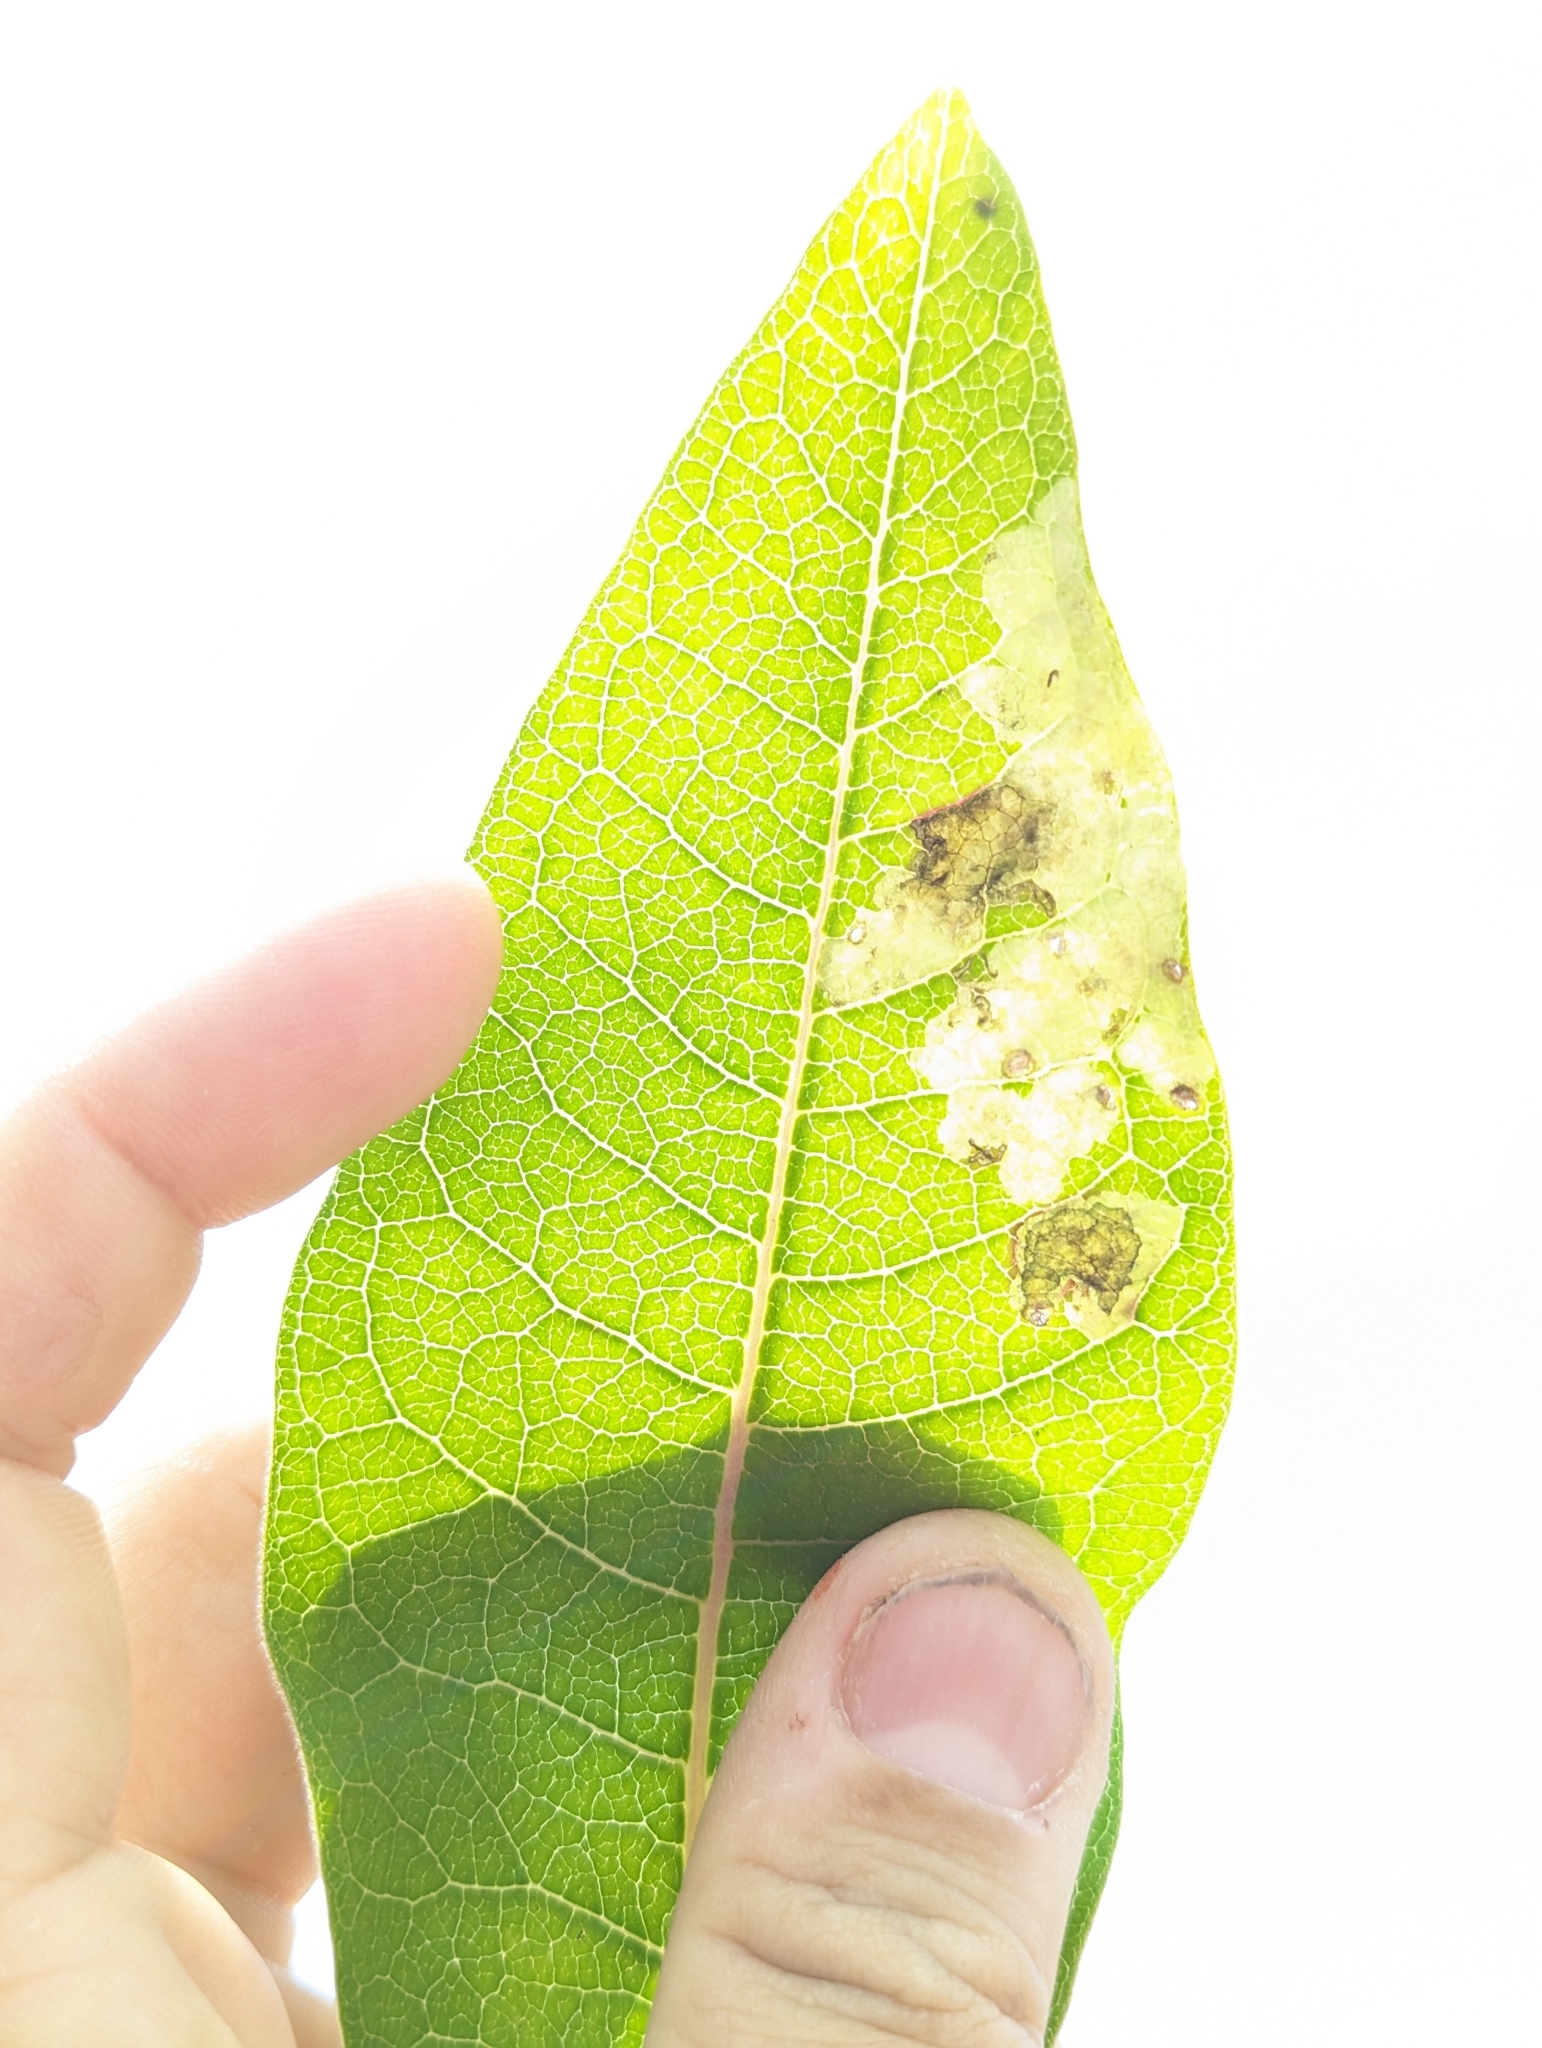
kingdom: Animalia
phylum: Arthropoda
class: Insecta
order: Diptera
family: Agromyzidae
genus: Liriomyza
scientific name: Liriomyza asclepiadis
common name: Milkweed leaf-miner fly
